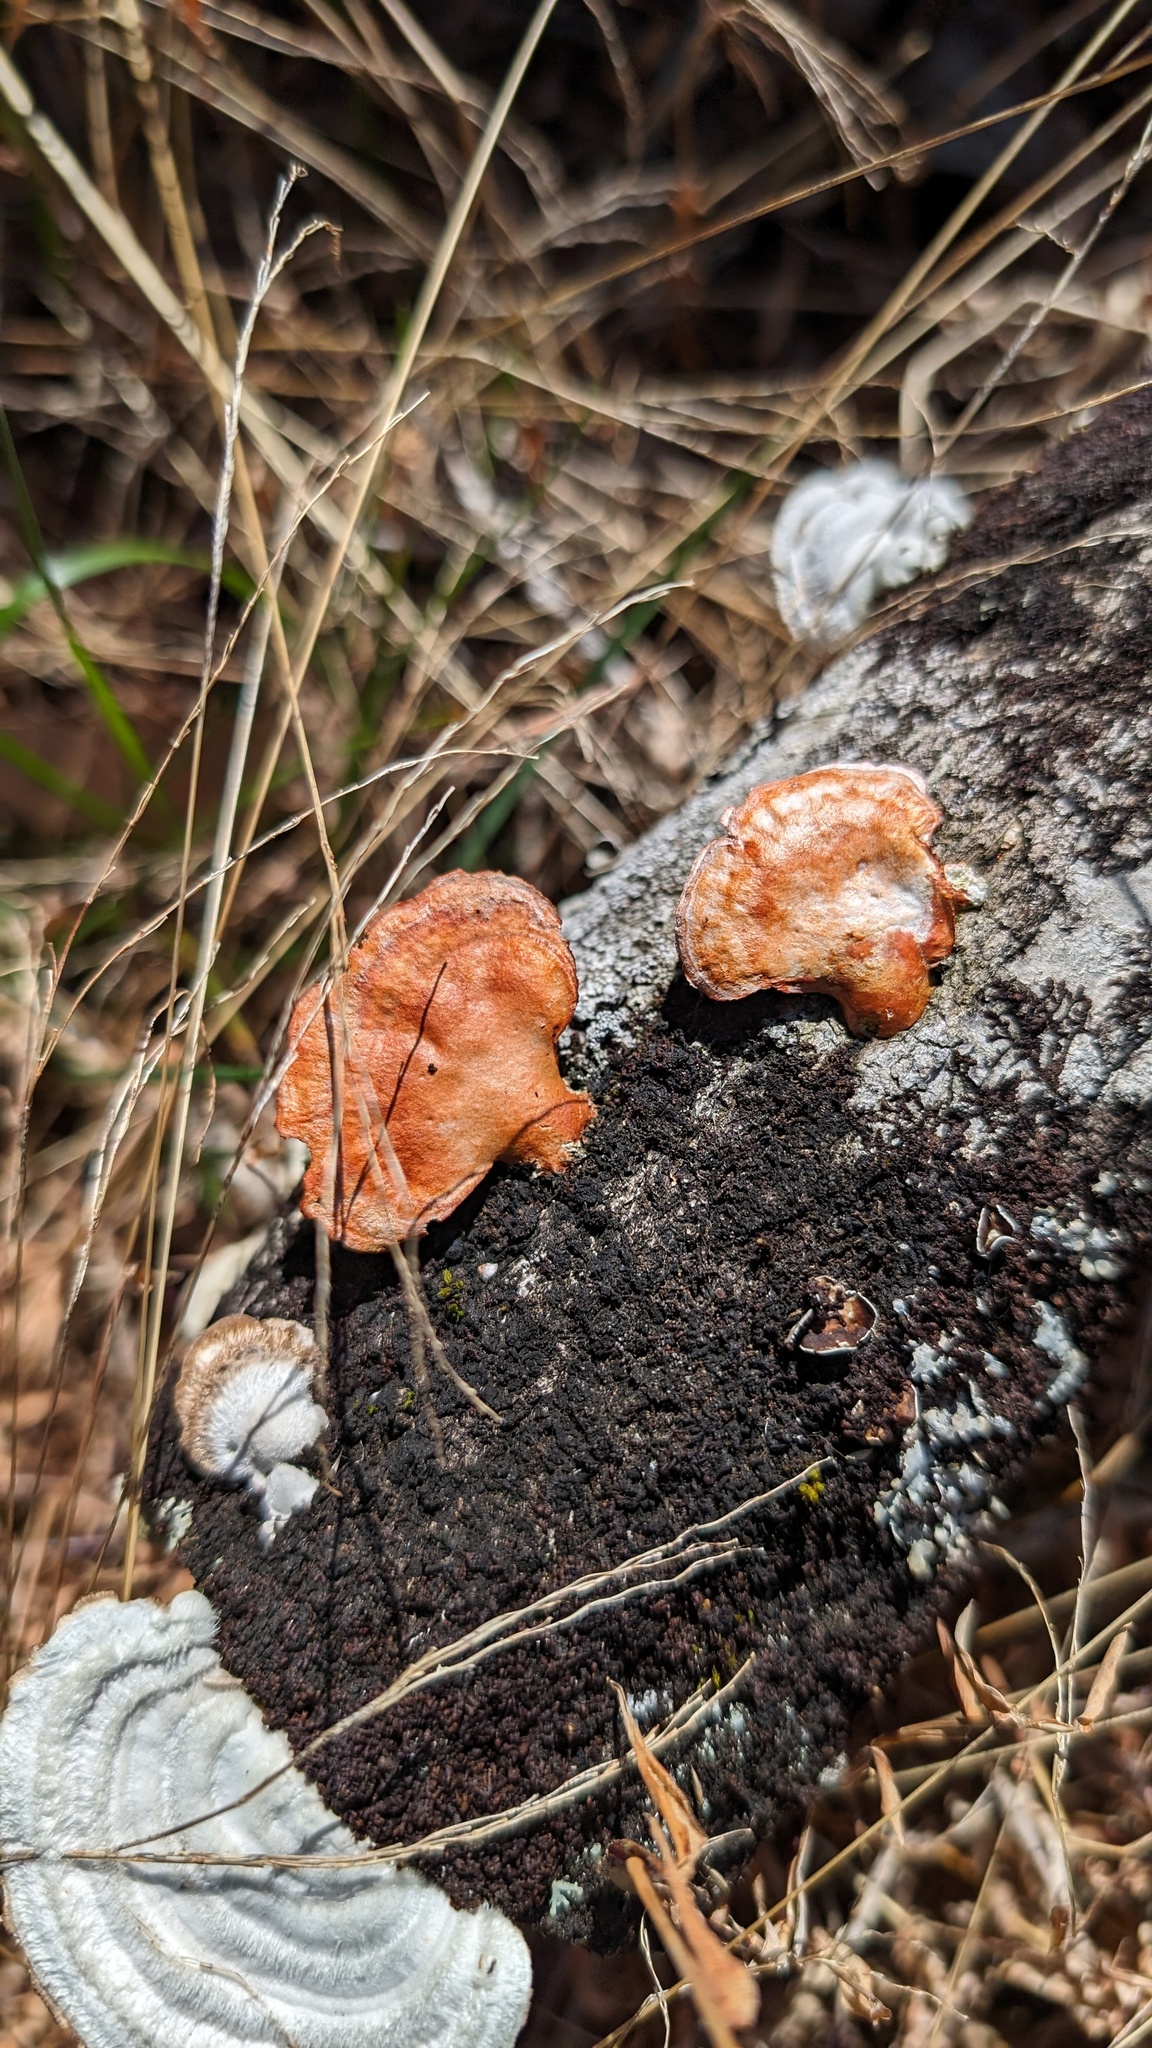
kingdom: Fungi
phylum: Basidiomycota
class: Agaricomycetes
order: Polyporales
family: Polyporaceae
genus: Trametes
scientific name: Trametes coccinea
